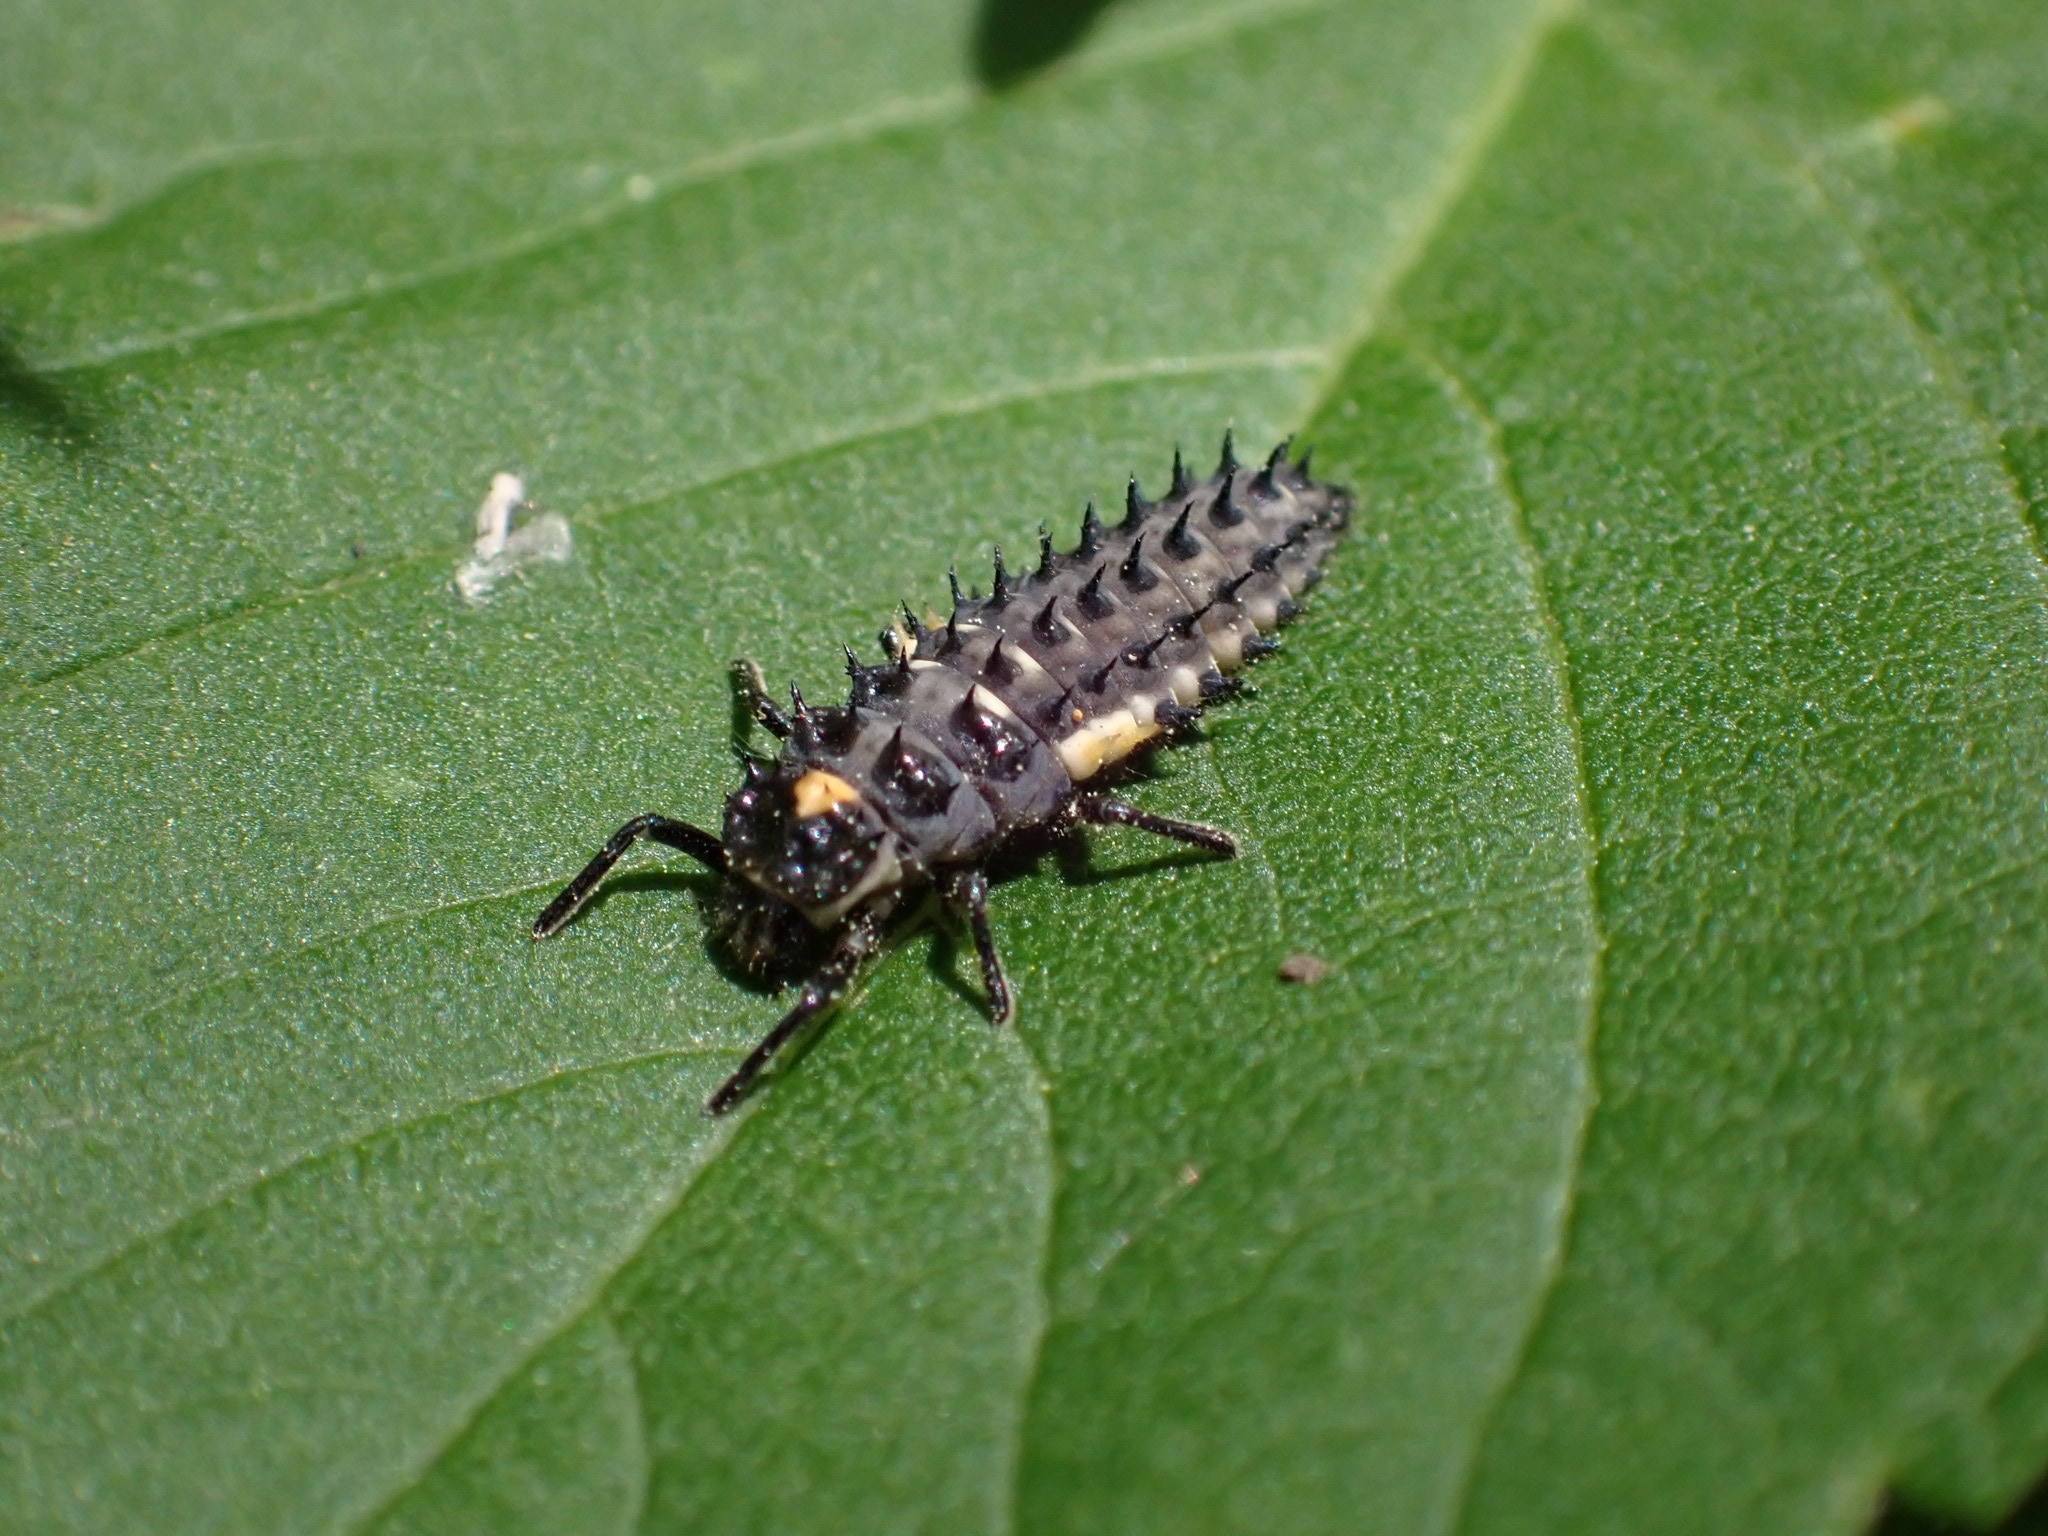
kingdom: Animalia
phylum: Arthropoda
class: Insecta
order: Coleoptera
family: Coccinellidae
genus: Anatis
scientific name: Anatis ocellata
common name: Eyed ladybird
